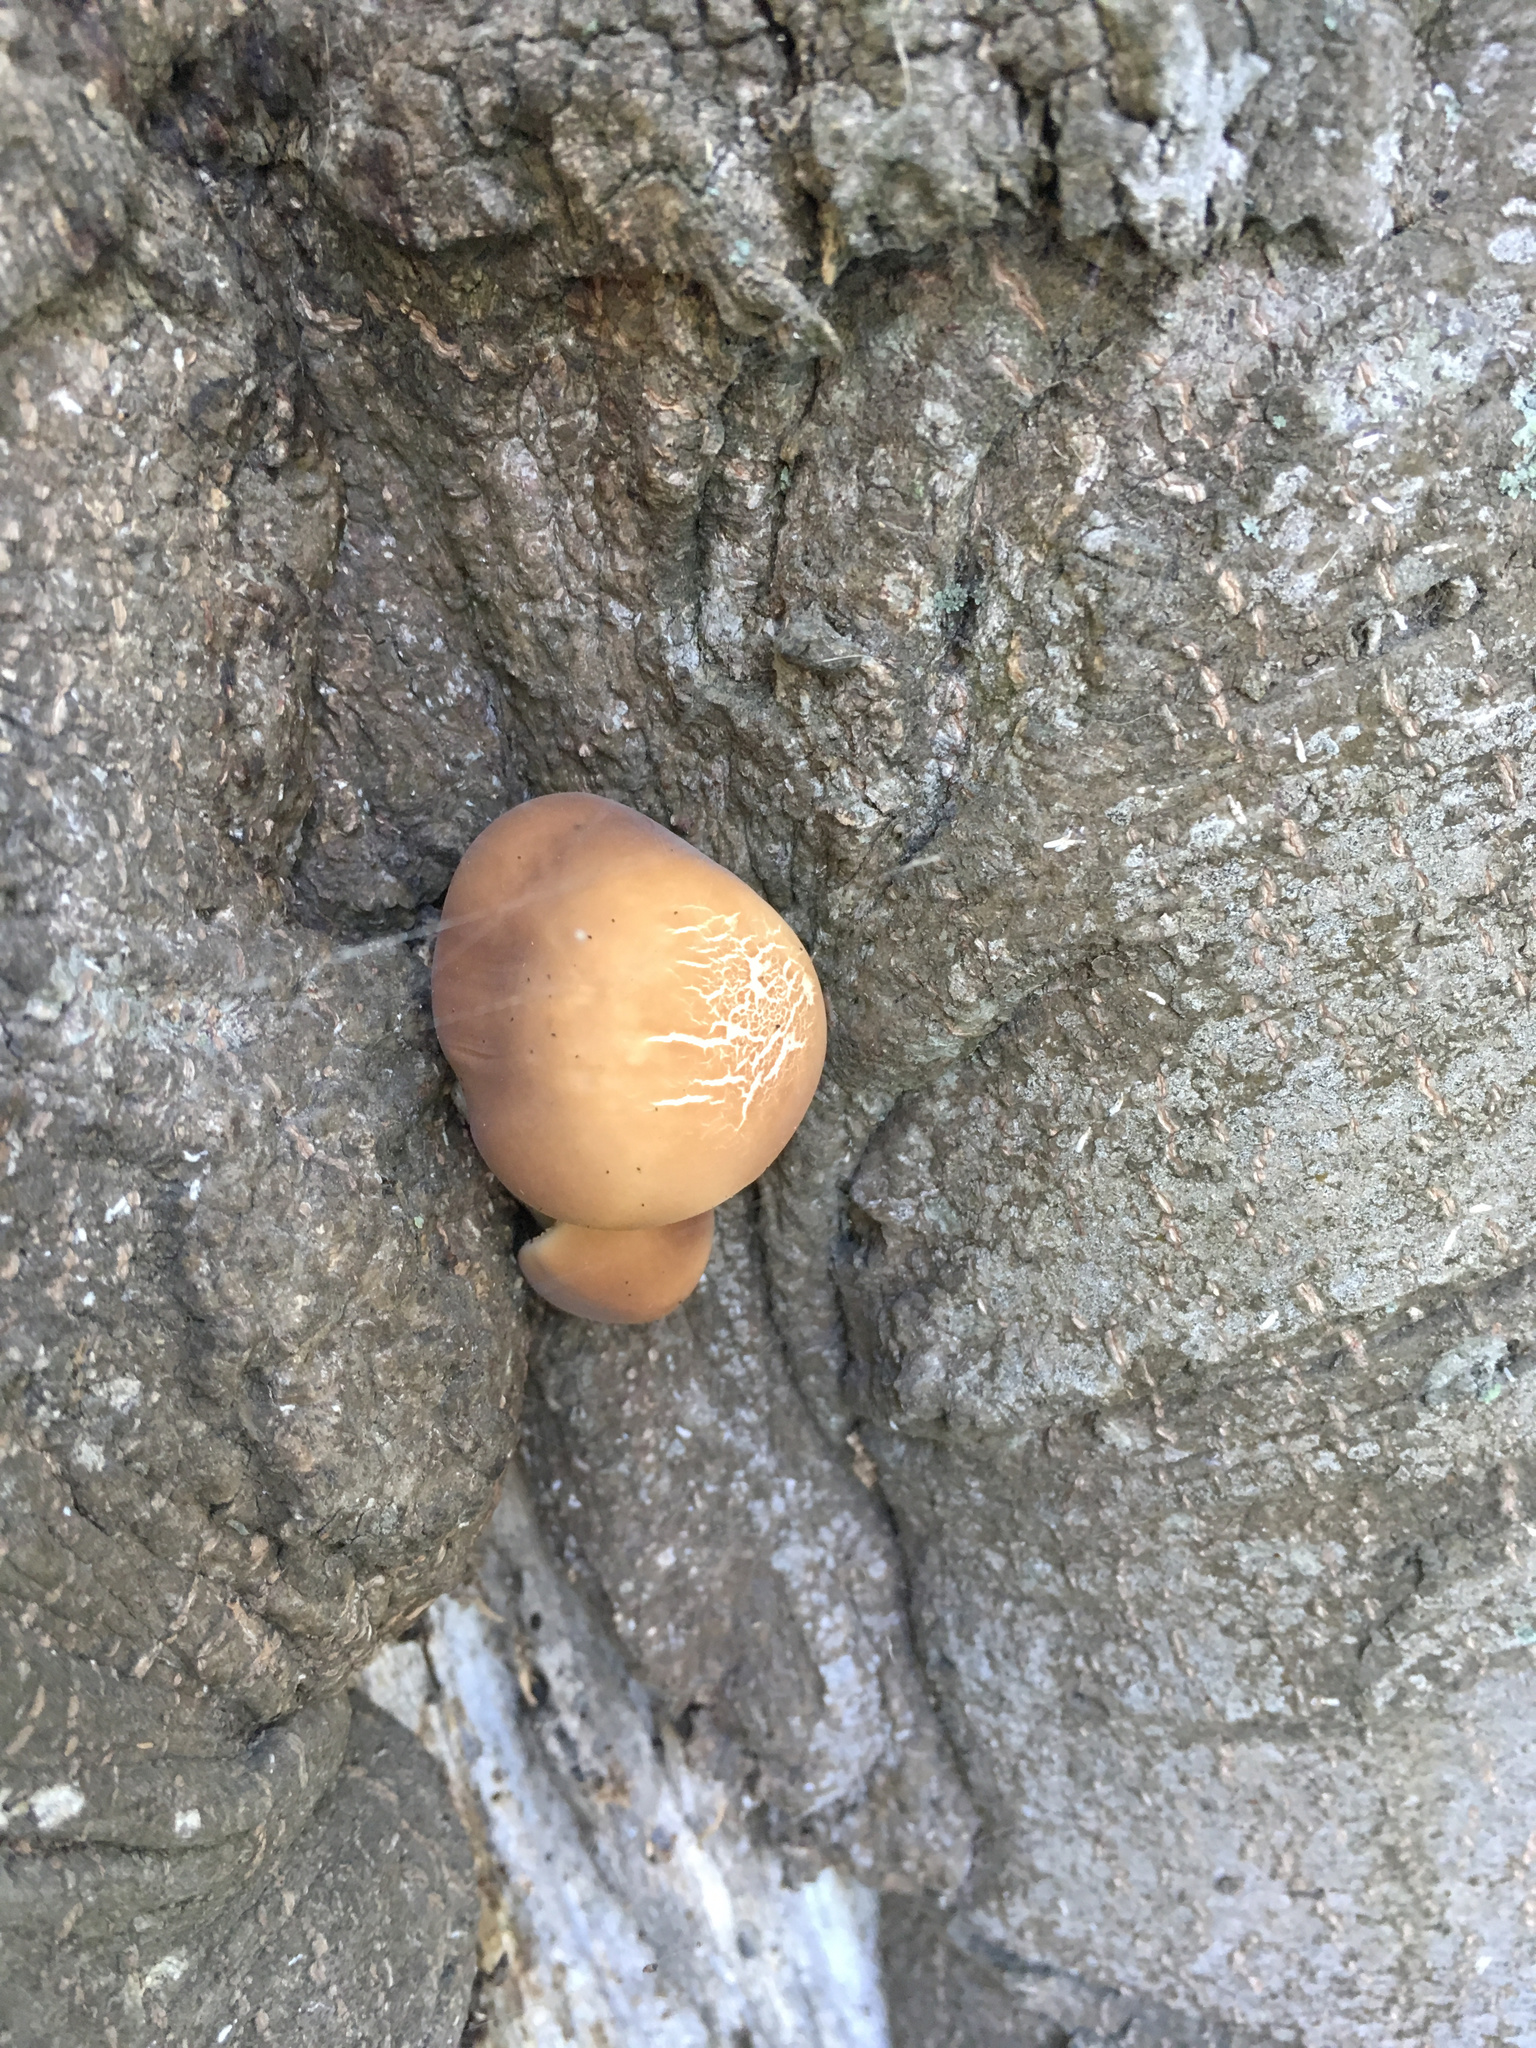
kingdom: Fungi
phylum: Basidiomycota
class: Agaricomycetes
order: Agaricales
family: Tubariaceae
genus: Cyclocybe
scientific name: Cyclocybe parasitica
